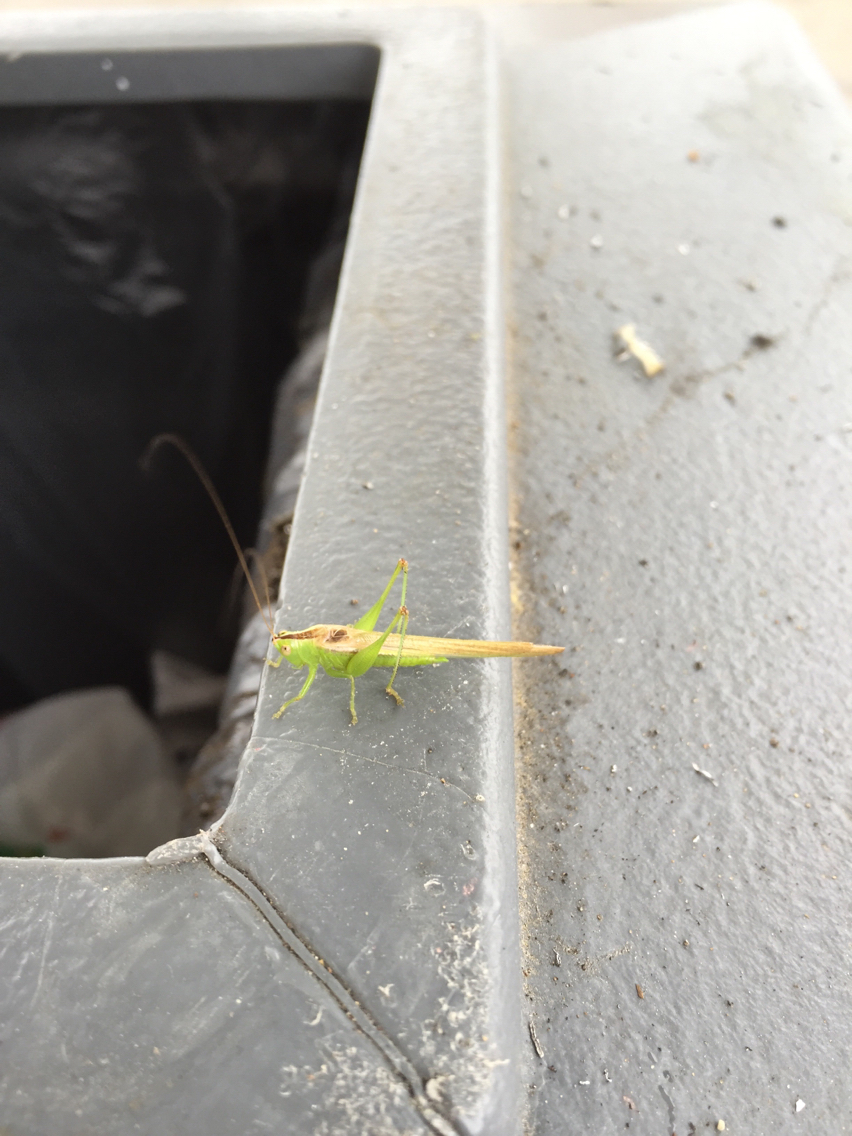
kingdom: Animalia
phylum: Arthropoda
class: Insecta
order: Orthoptera
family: Tettigoniidae
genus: Conocephalus
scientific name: Conocephalus fasciatus
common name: Slender meadow katydid
